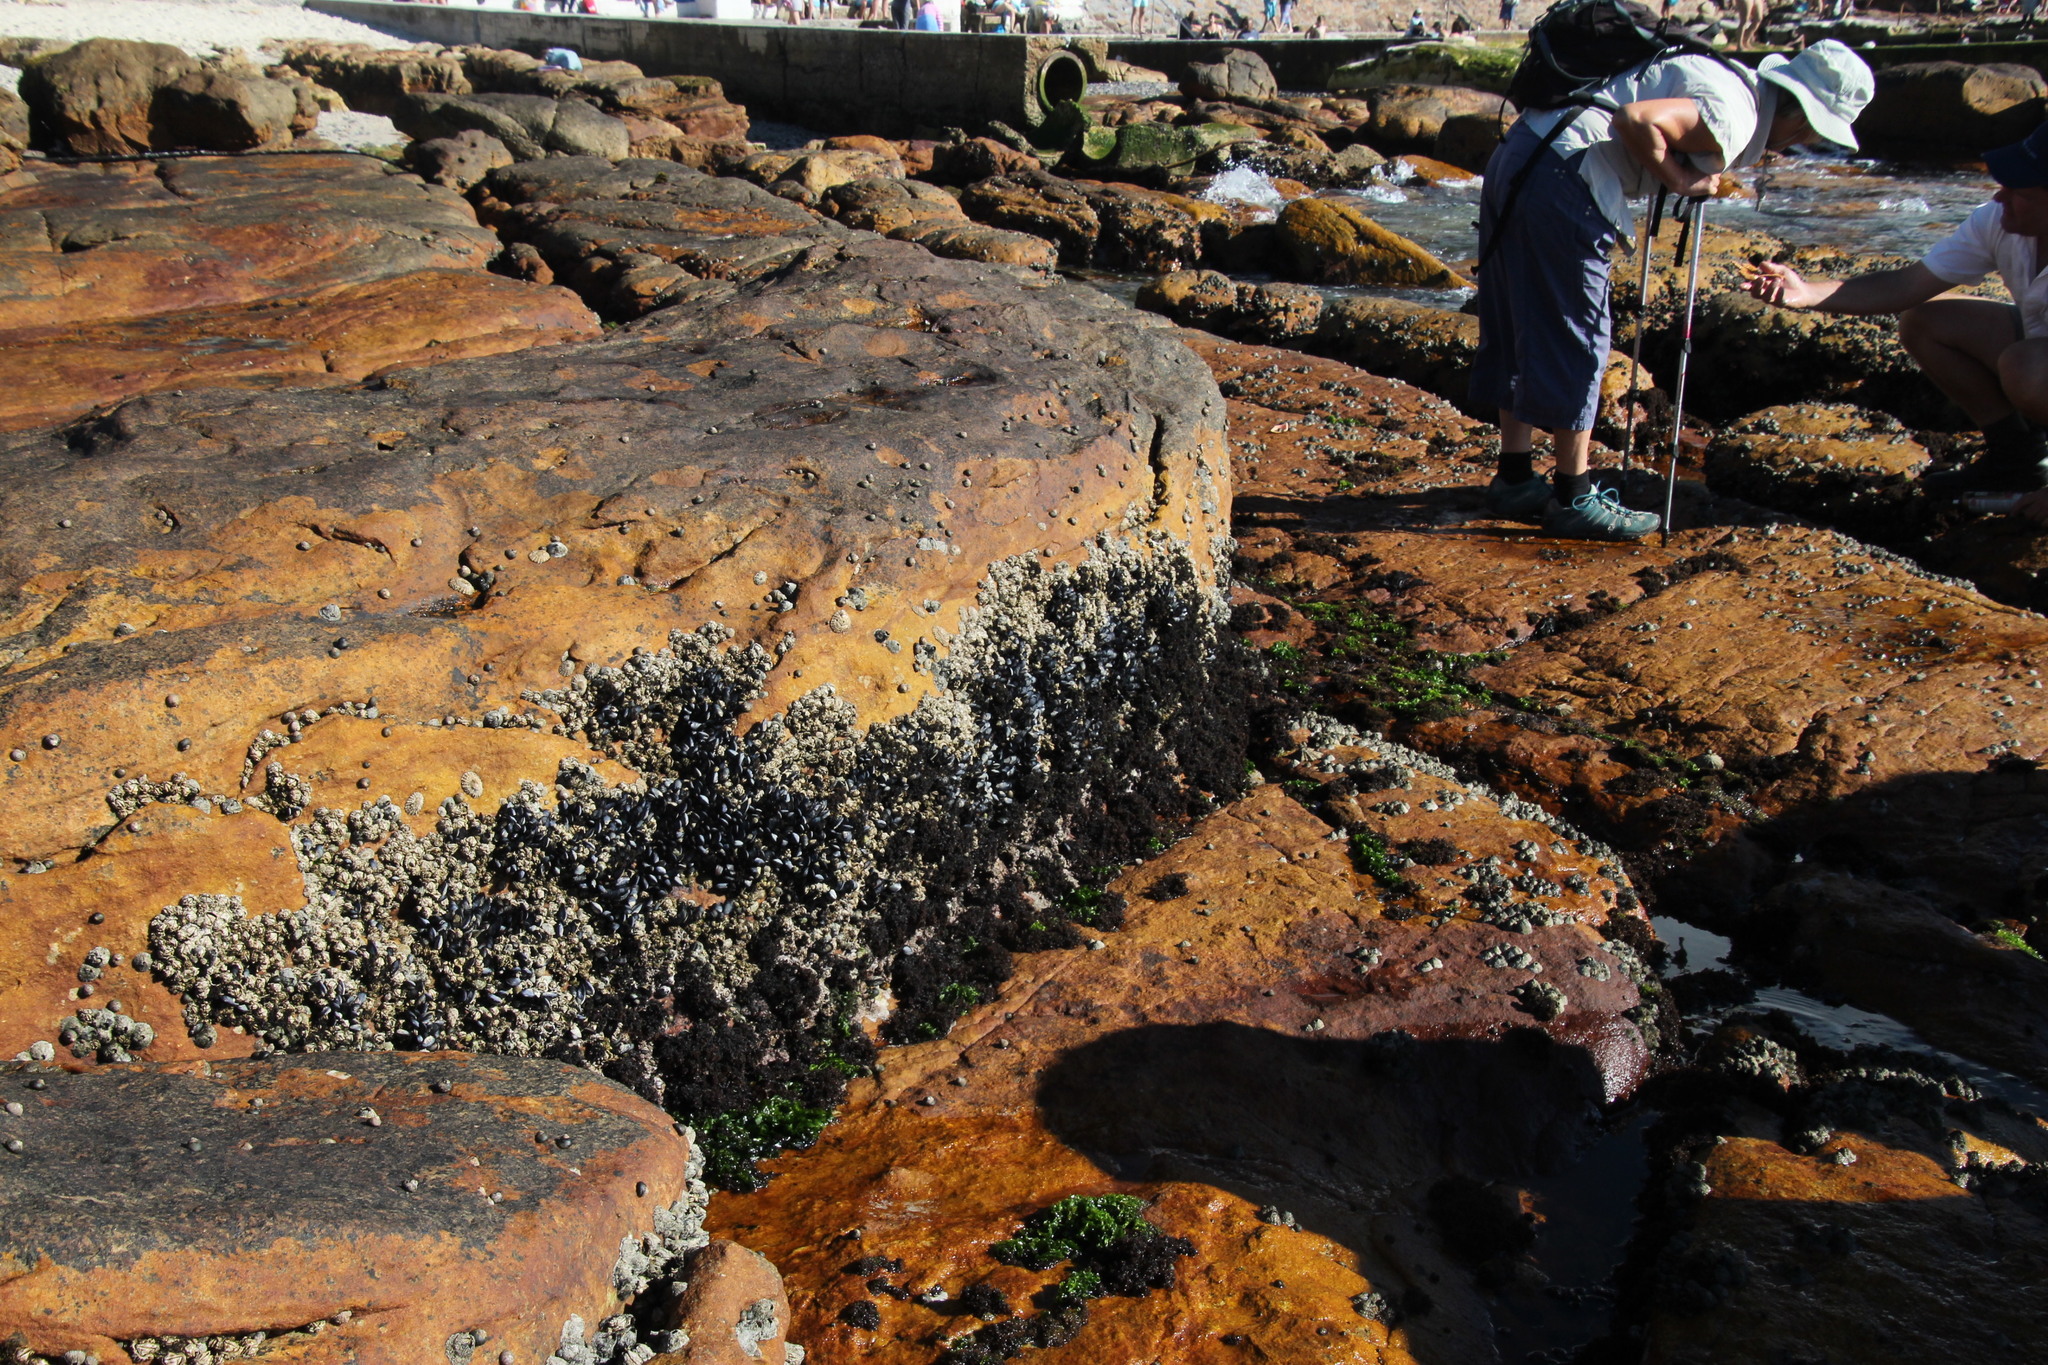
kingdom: Animalia
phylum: Arthropoda
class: Maxillopoda
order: Sessilia
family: Chthamalidae
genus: Octomeris
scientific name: Octomeris angulosa
